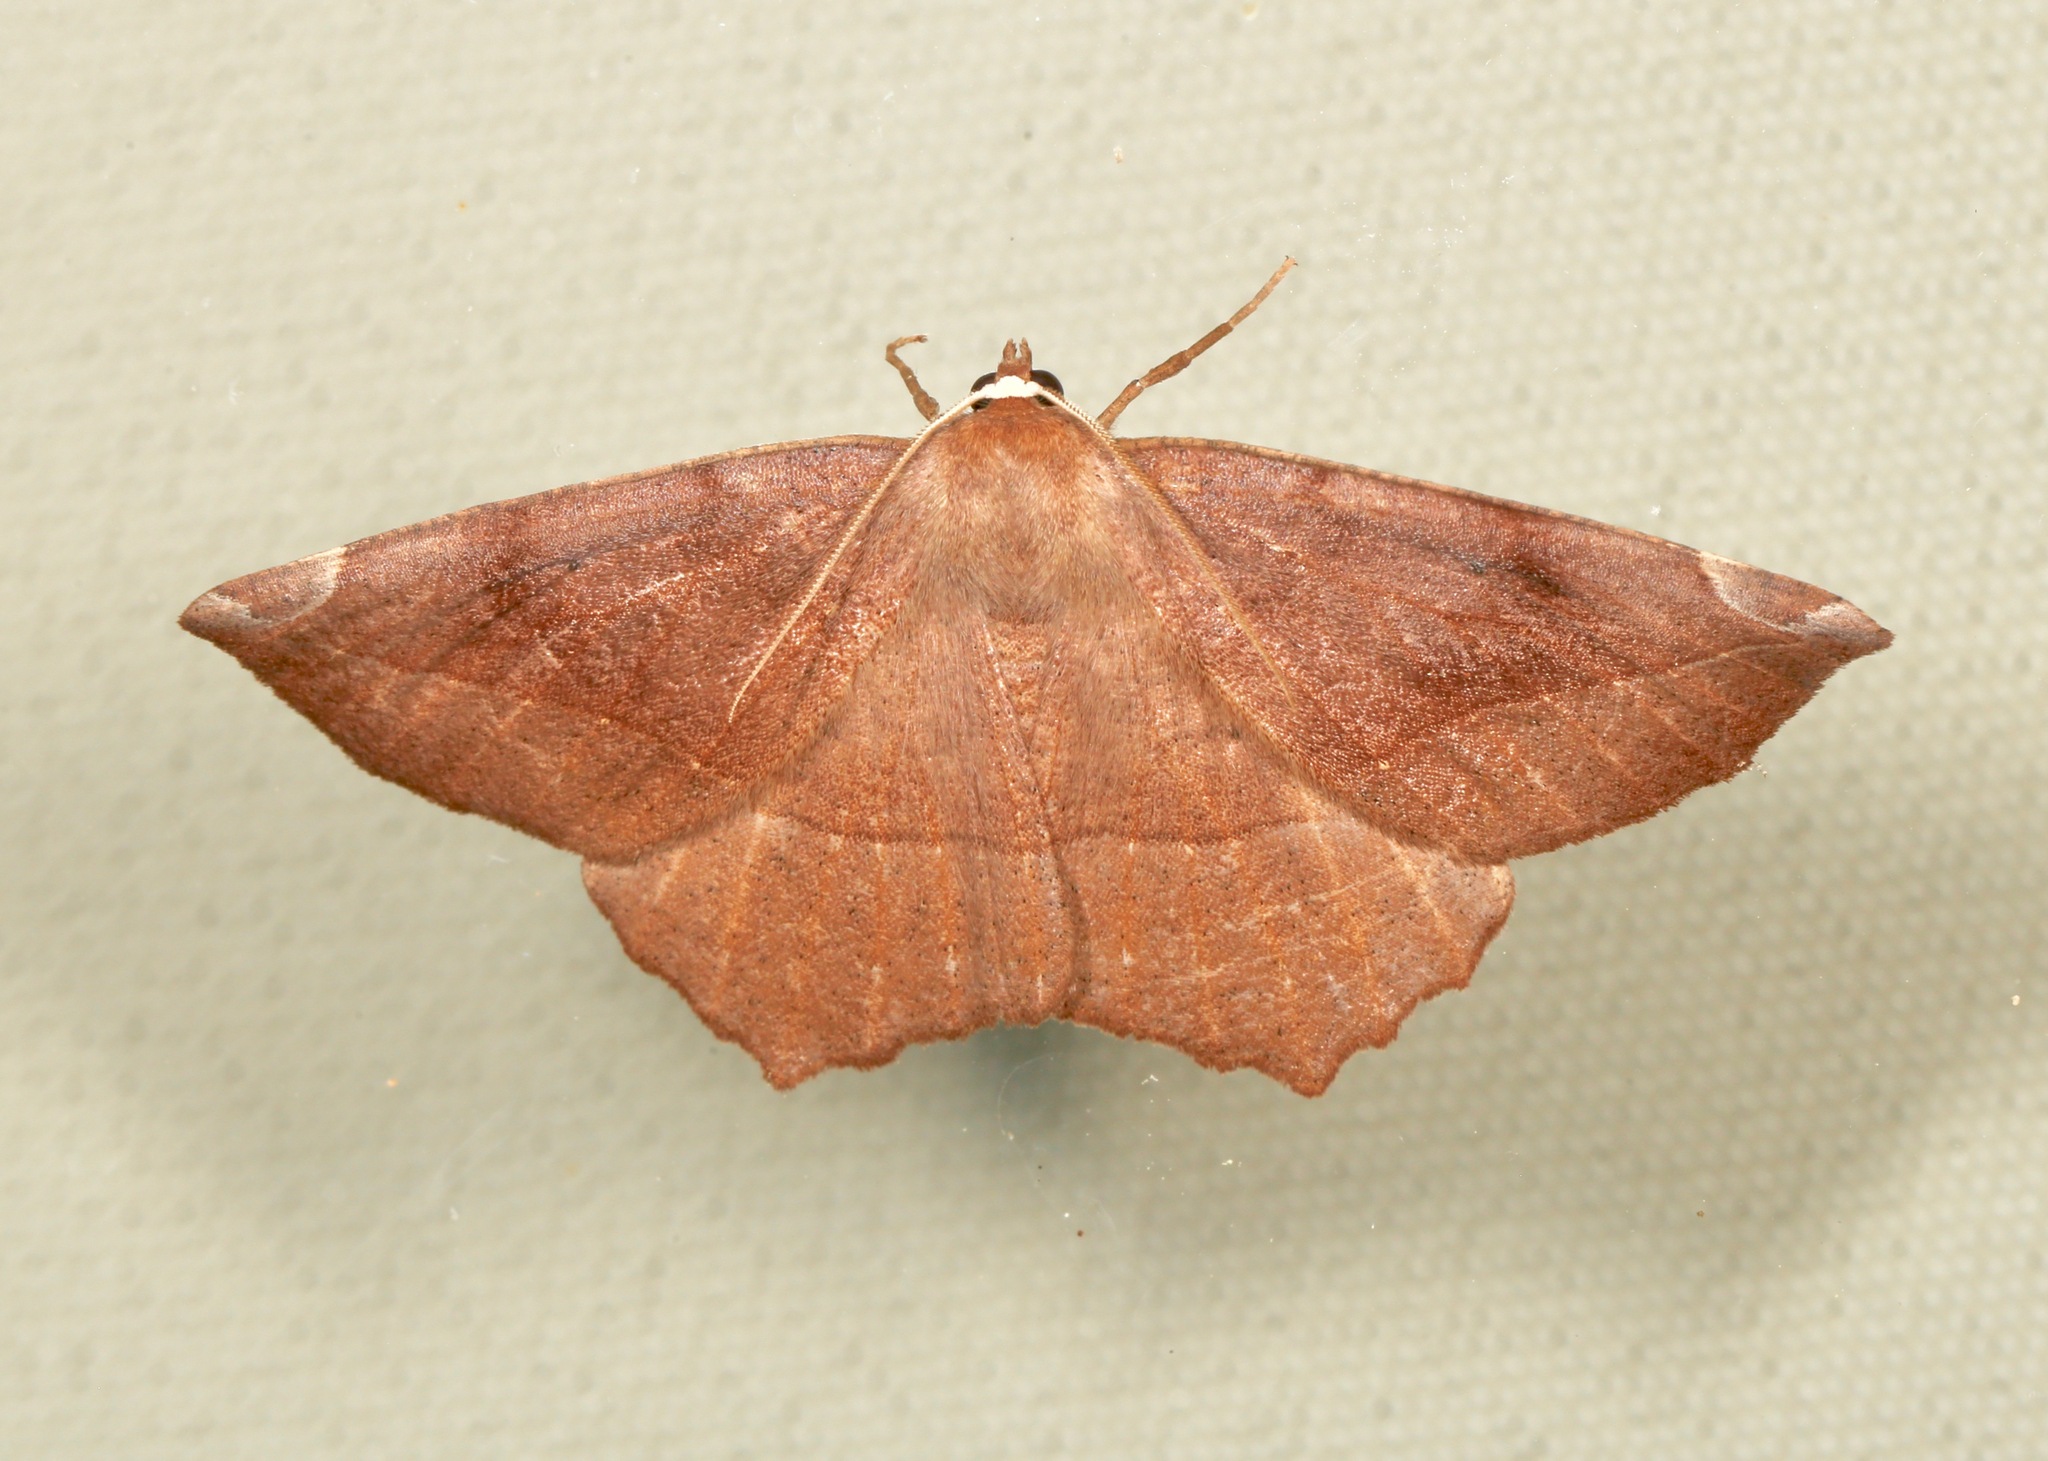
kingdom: Animalia
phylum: Arthropoda
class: Insecta
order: Lepidoptera
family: Geometridae
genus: Eutrapela
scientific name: Eutrapela clemataria
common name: Curved-toothed geometer
